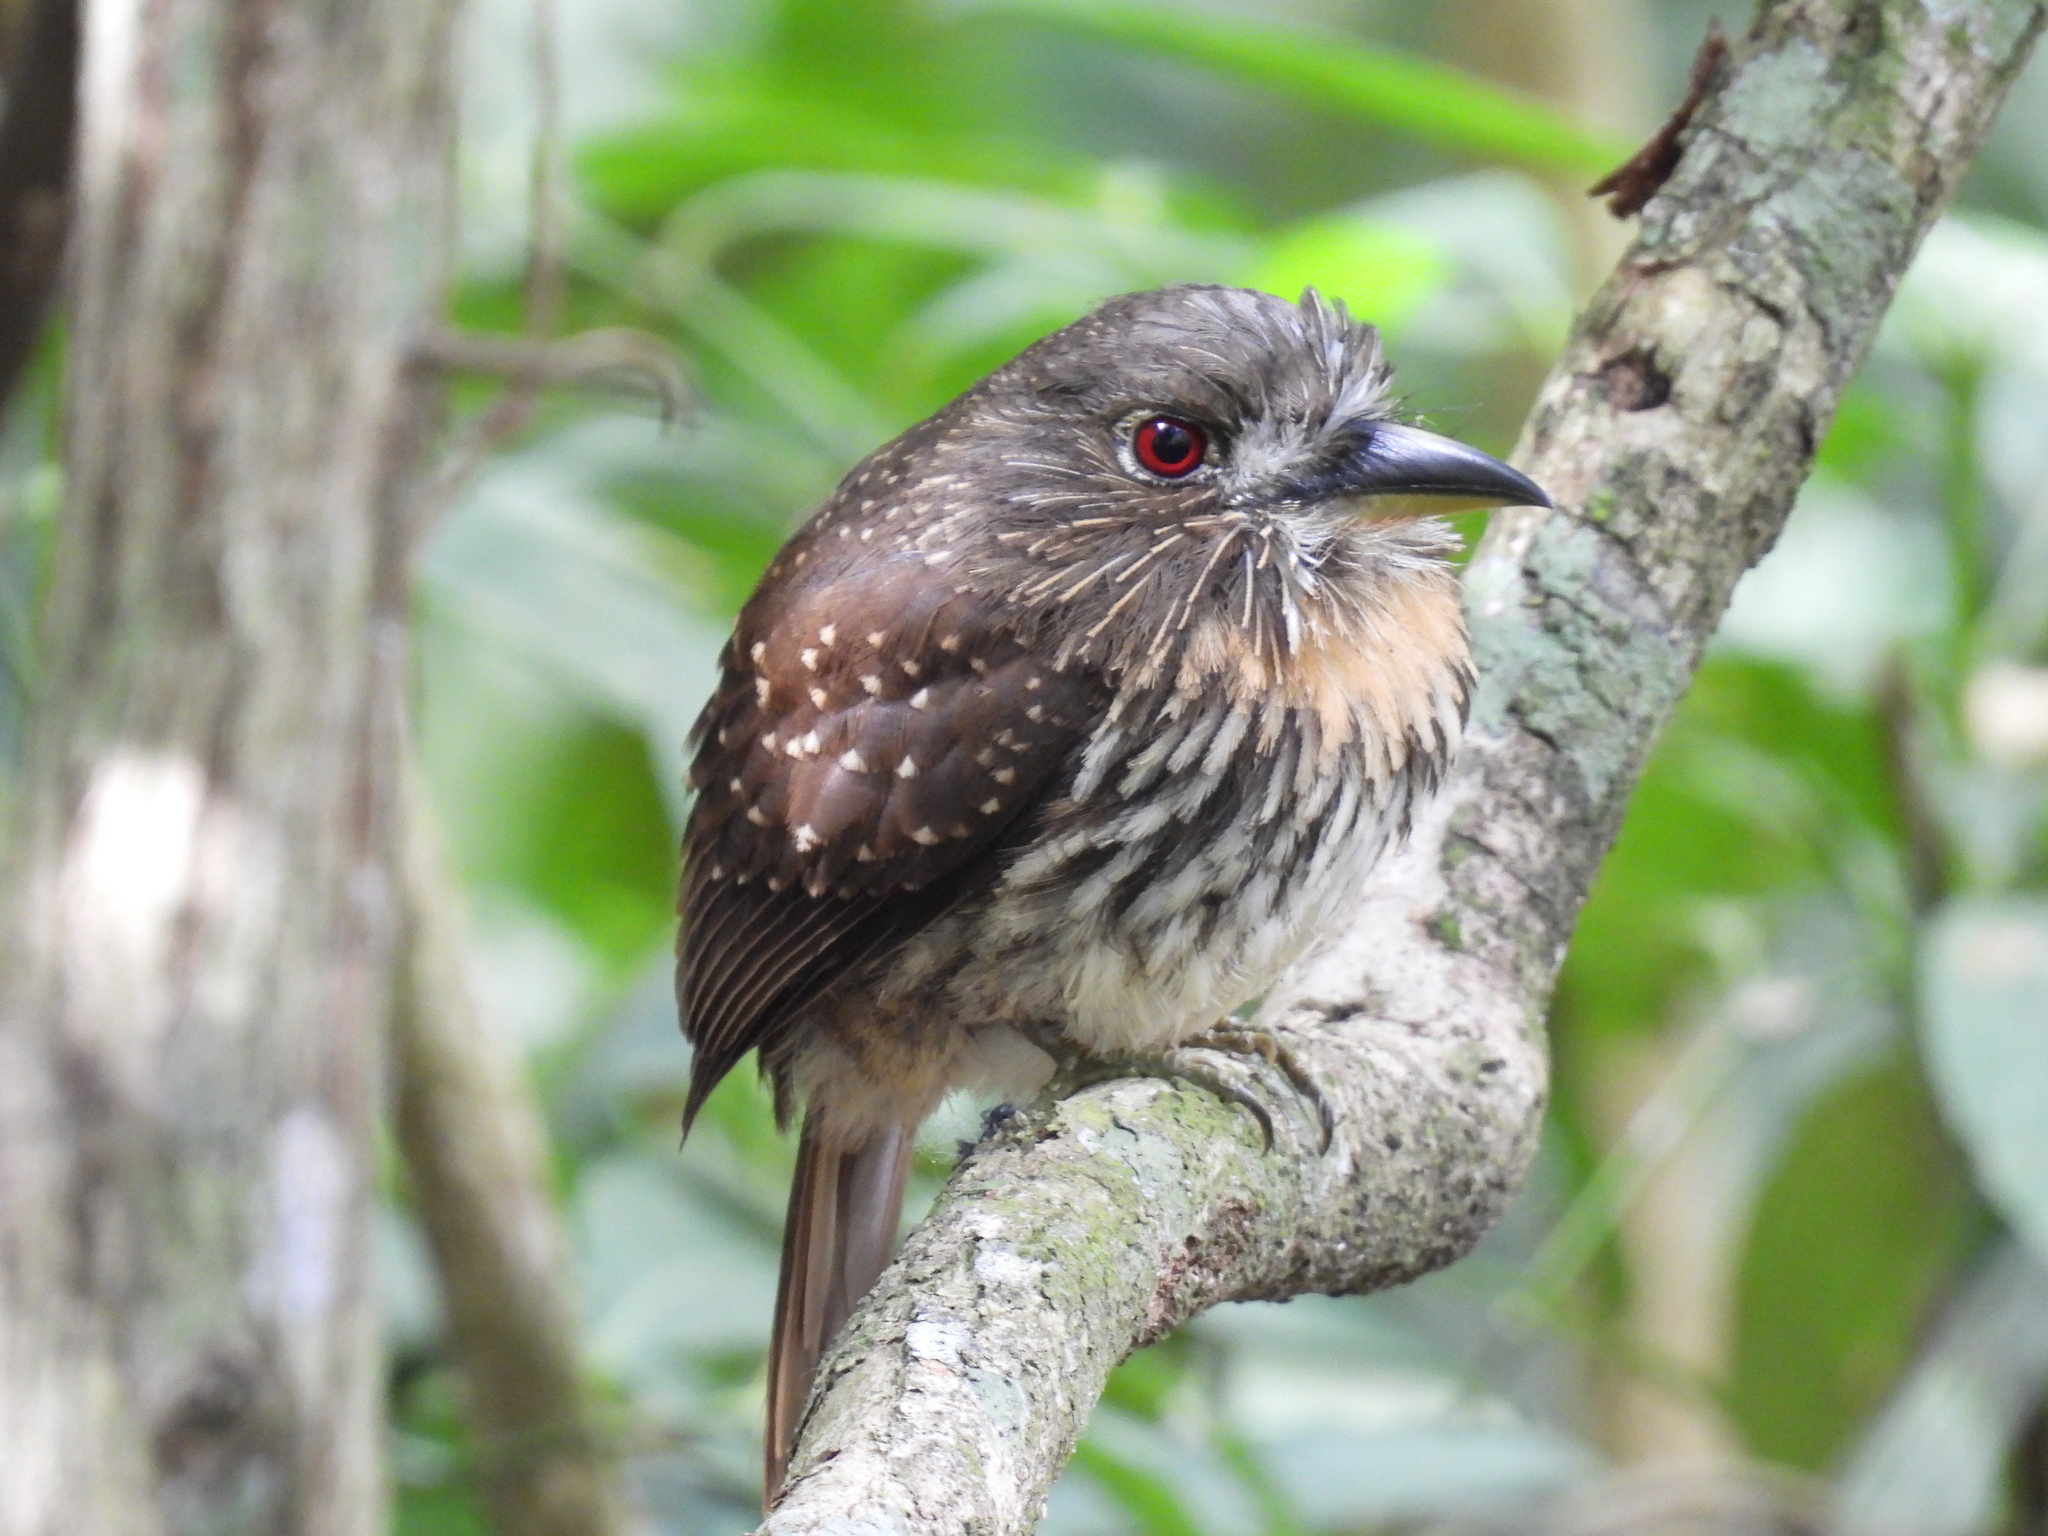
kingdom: Animalia
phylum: Chordata
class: Aves
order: Piciformes
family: Bucconidae
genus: Malacoptila
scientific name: Malacoptila panamensis
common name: White-whiskered puffbird
